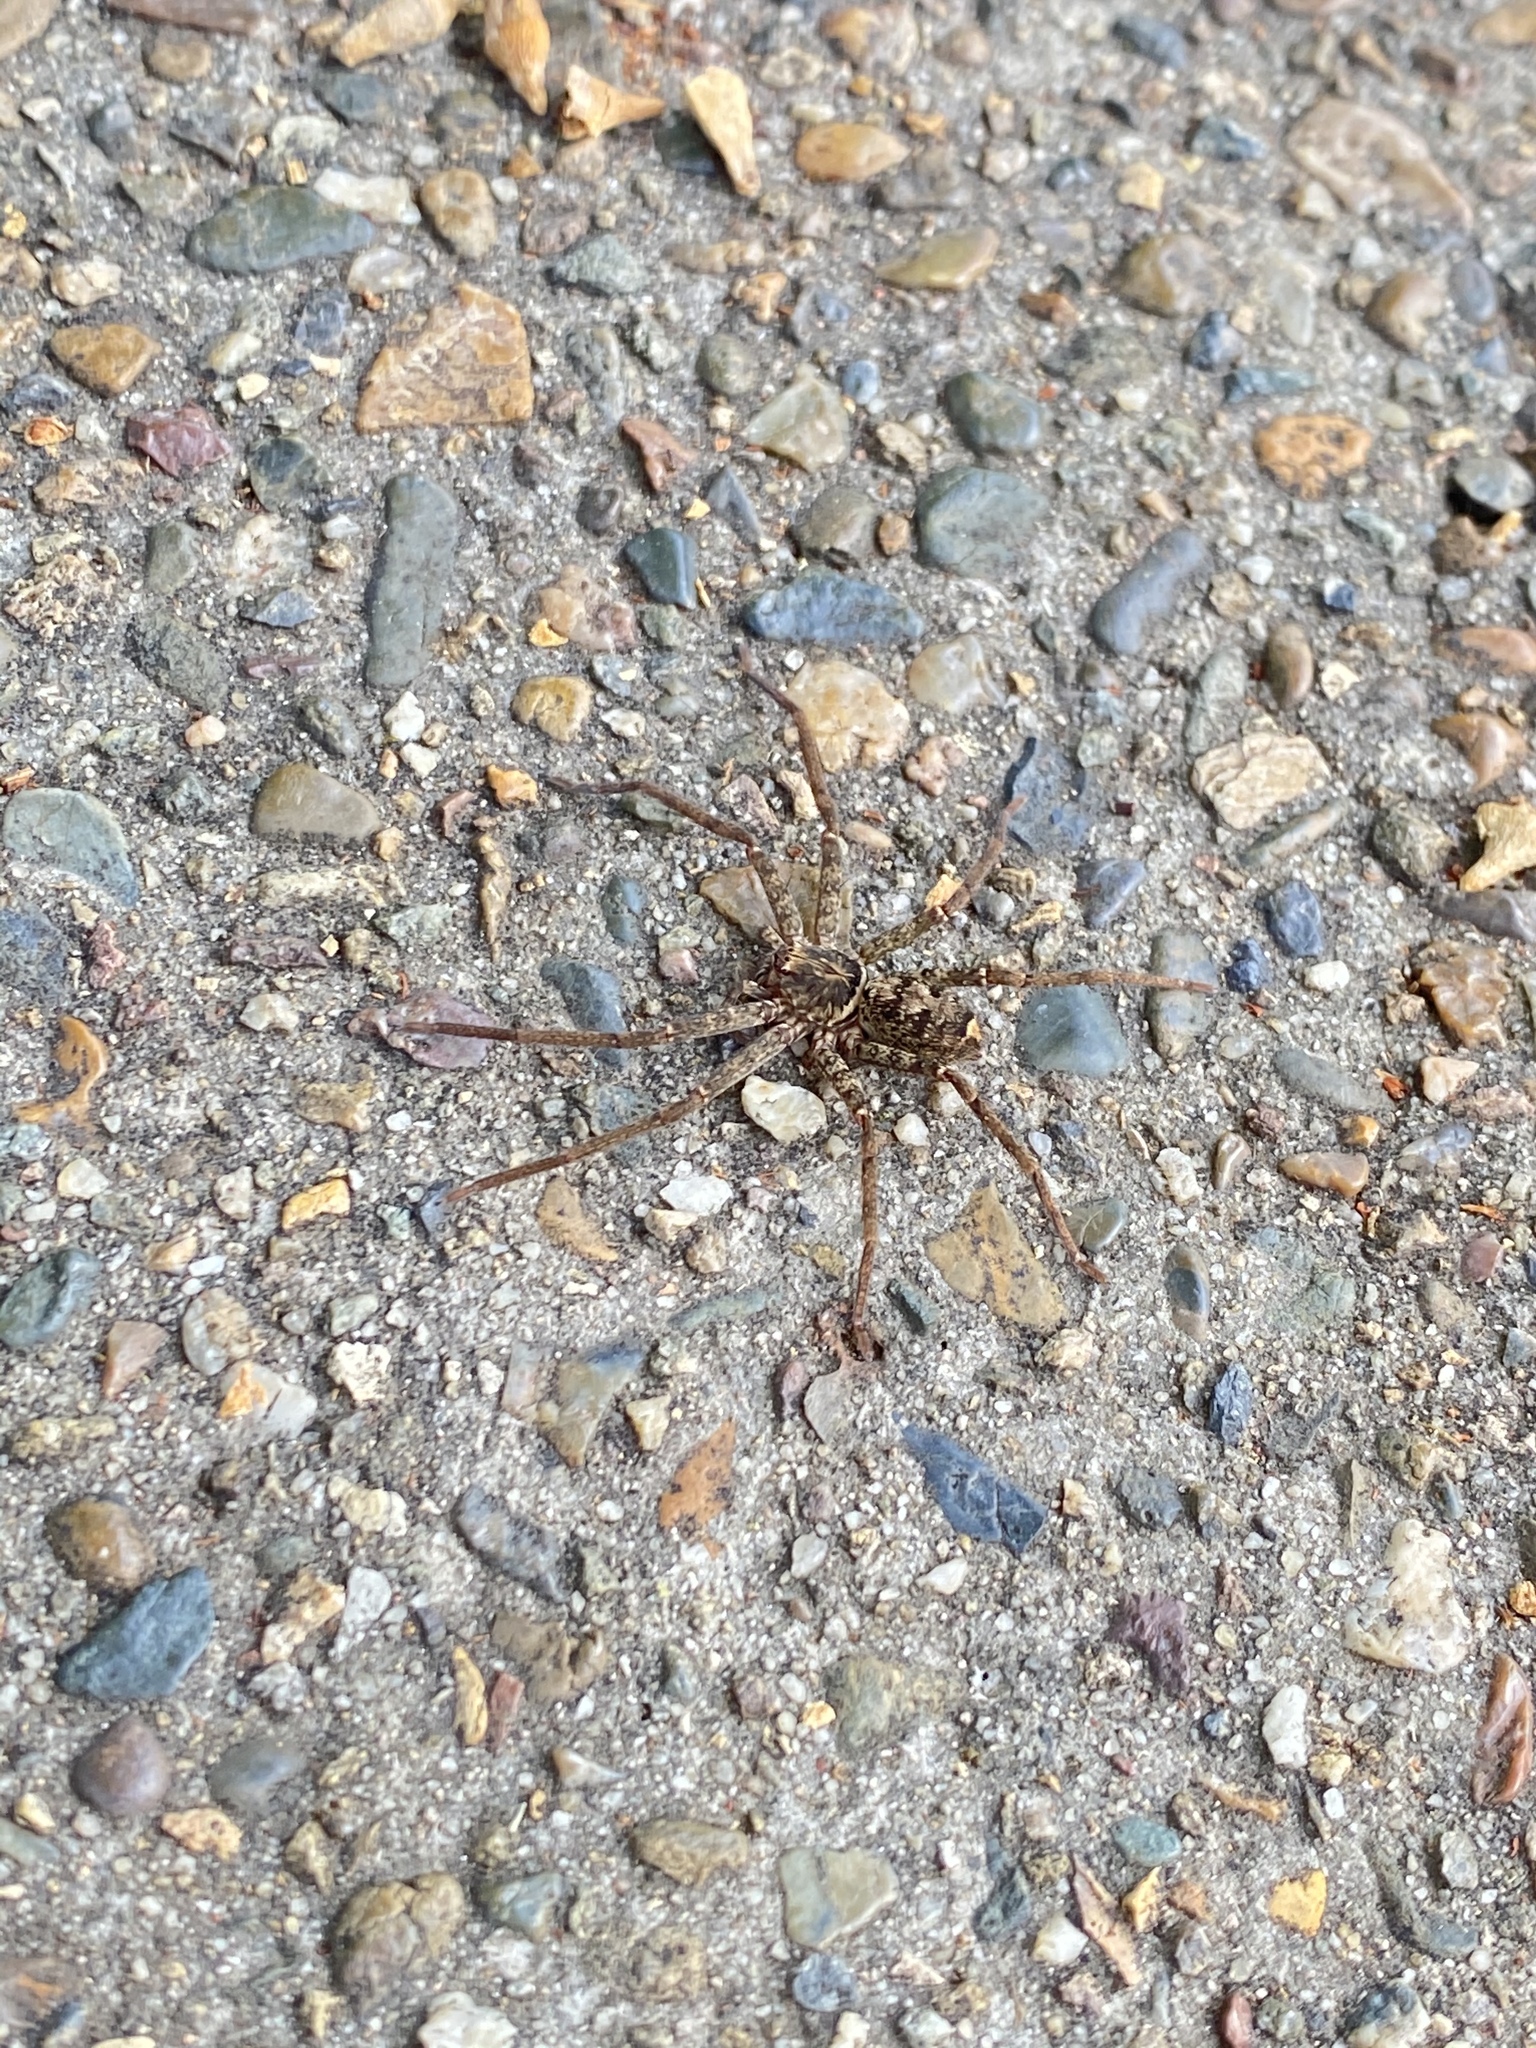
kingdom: Animalia
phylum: Arthropoda
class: Arachnida
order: Araneae
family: Sparassidae
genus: Heteropoda
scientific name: Heteropoda jugulans
